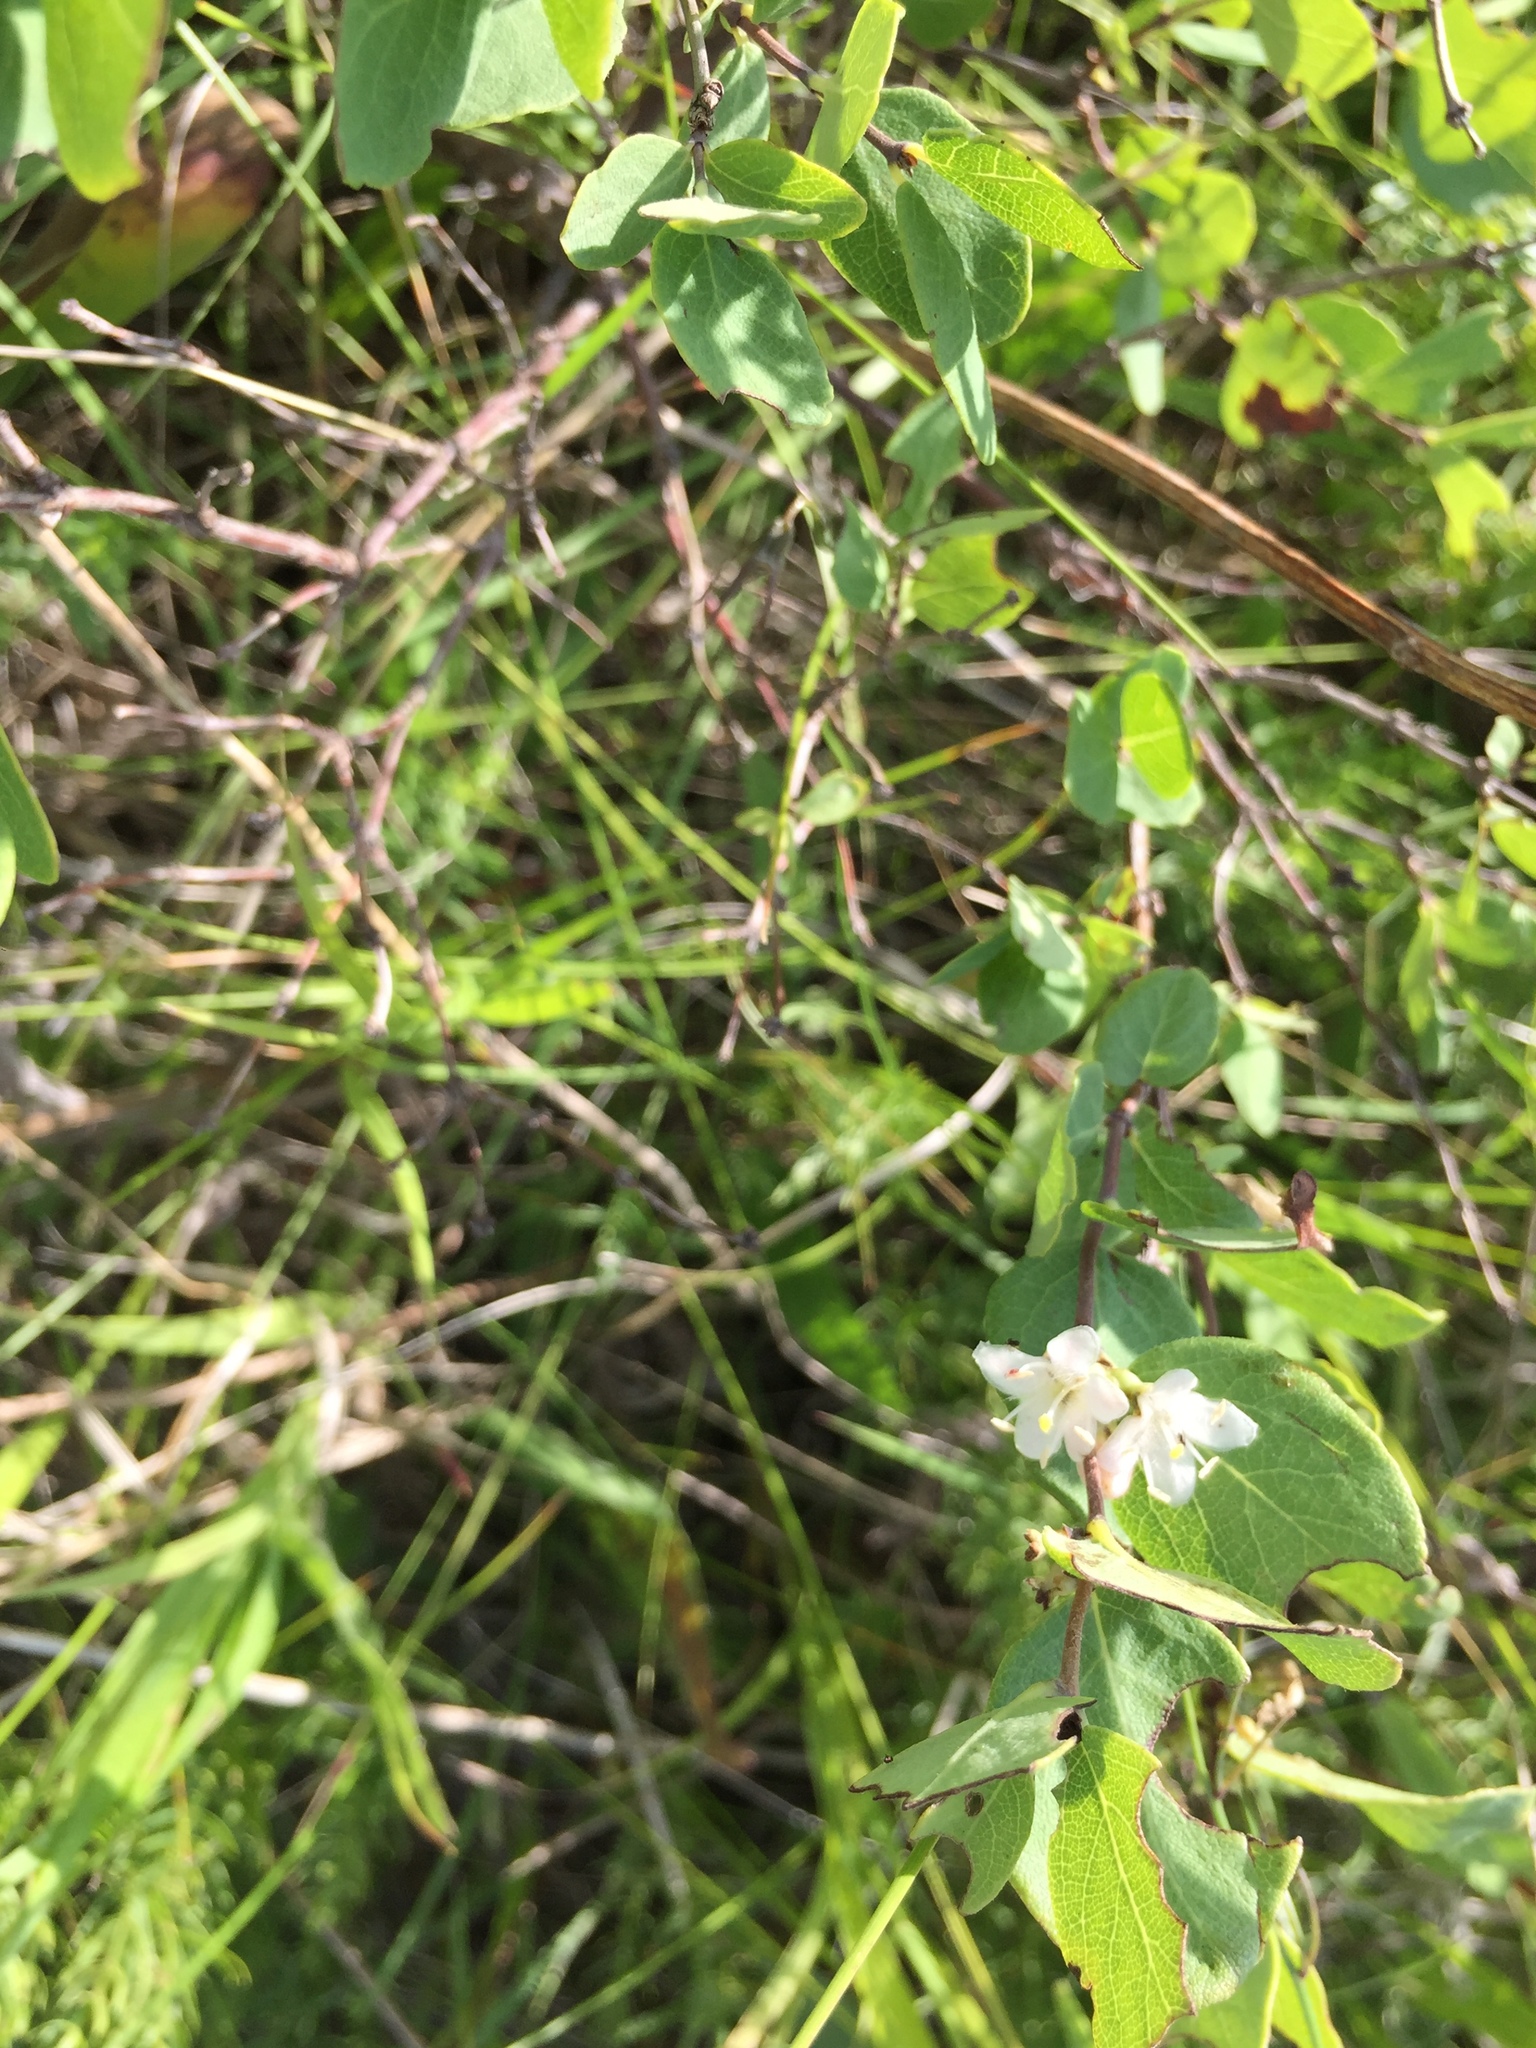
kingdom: Plantae
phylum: Tracheophyta
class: Magnoliopsida
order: Dipsacales
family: Caprifoliaceae
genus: Symphoricarpos
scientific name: Symphoricarpos occidentalis
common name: Wolfberry
